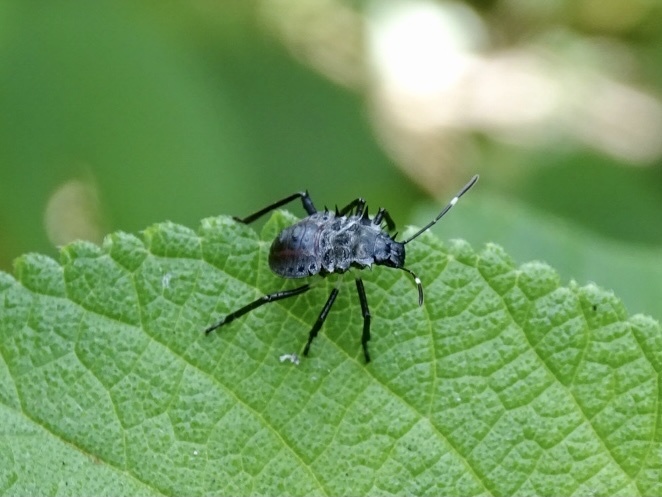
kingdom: Animalia
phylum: Arthropoda
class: Insecta
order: Hemiptera
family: Pentatomidae
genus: Halyomorpha
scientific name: Halyomorpha halys
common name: Brown marmorated stink bug
